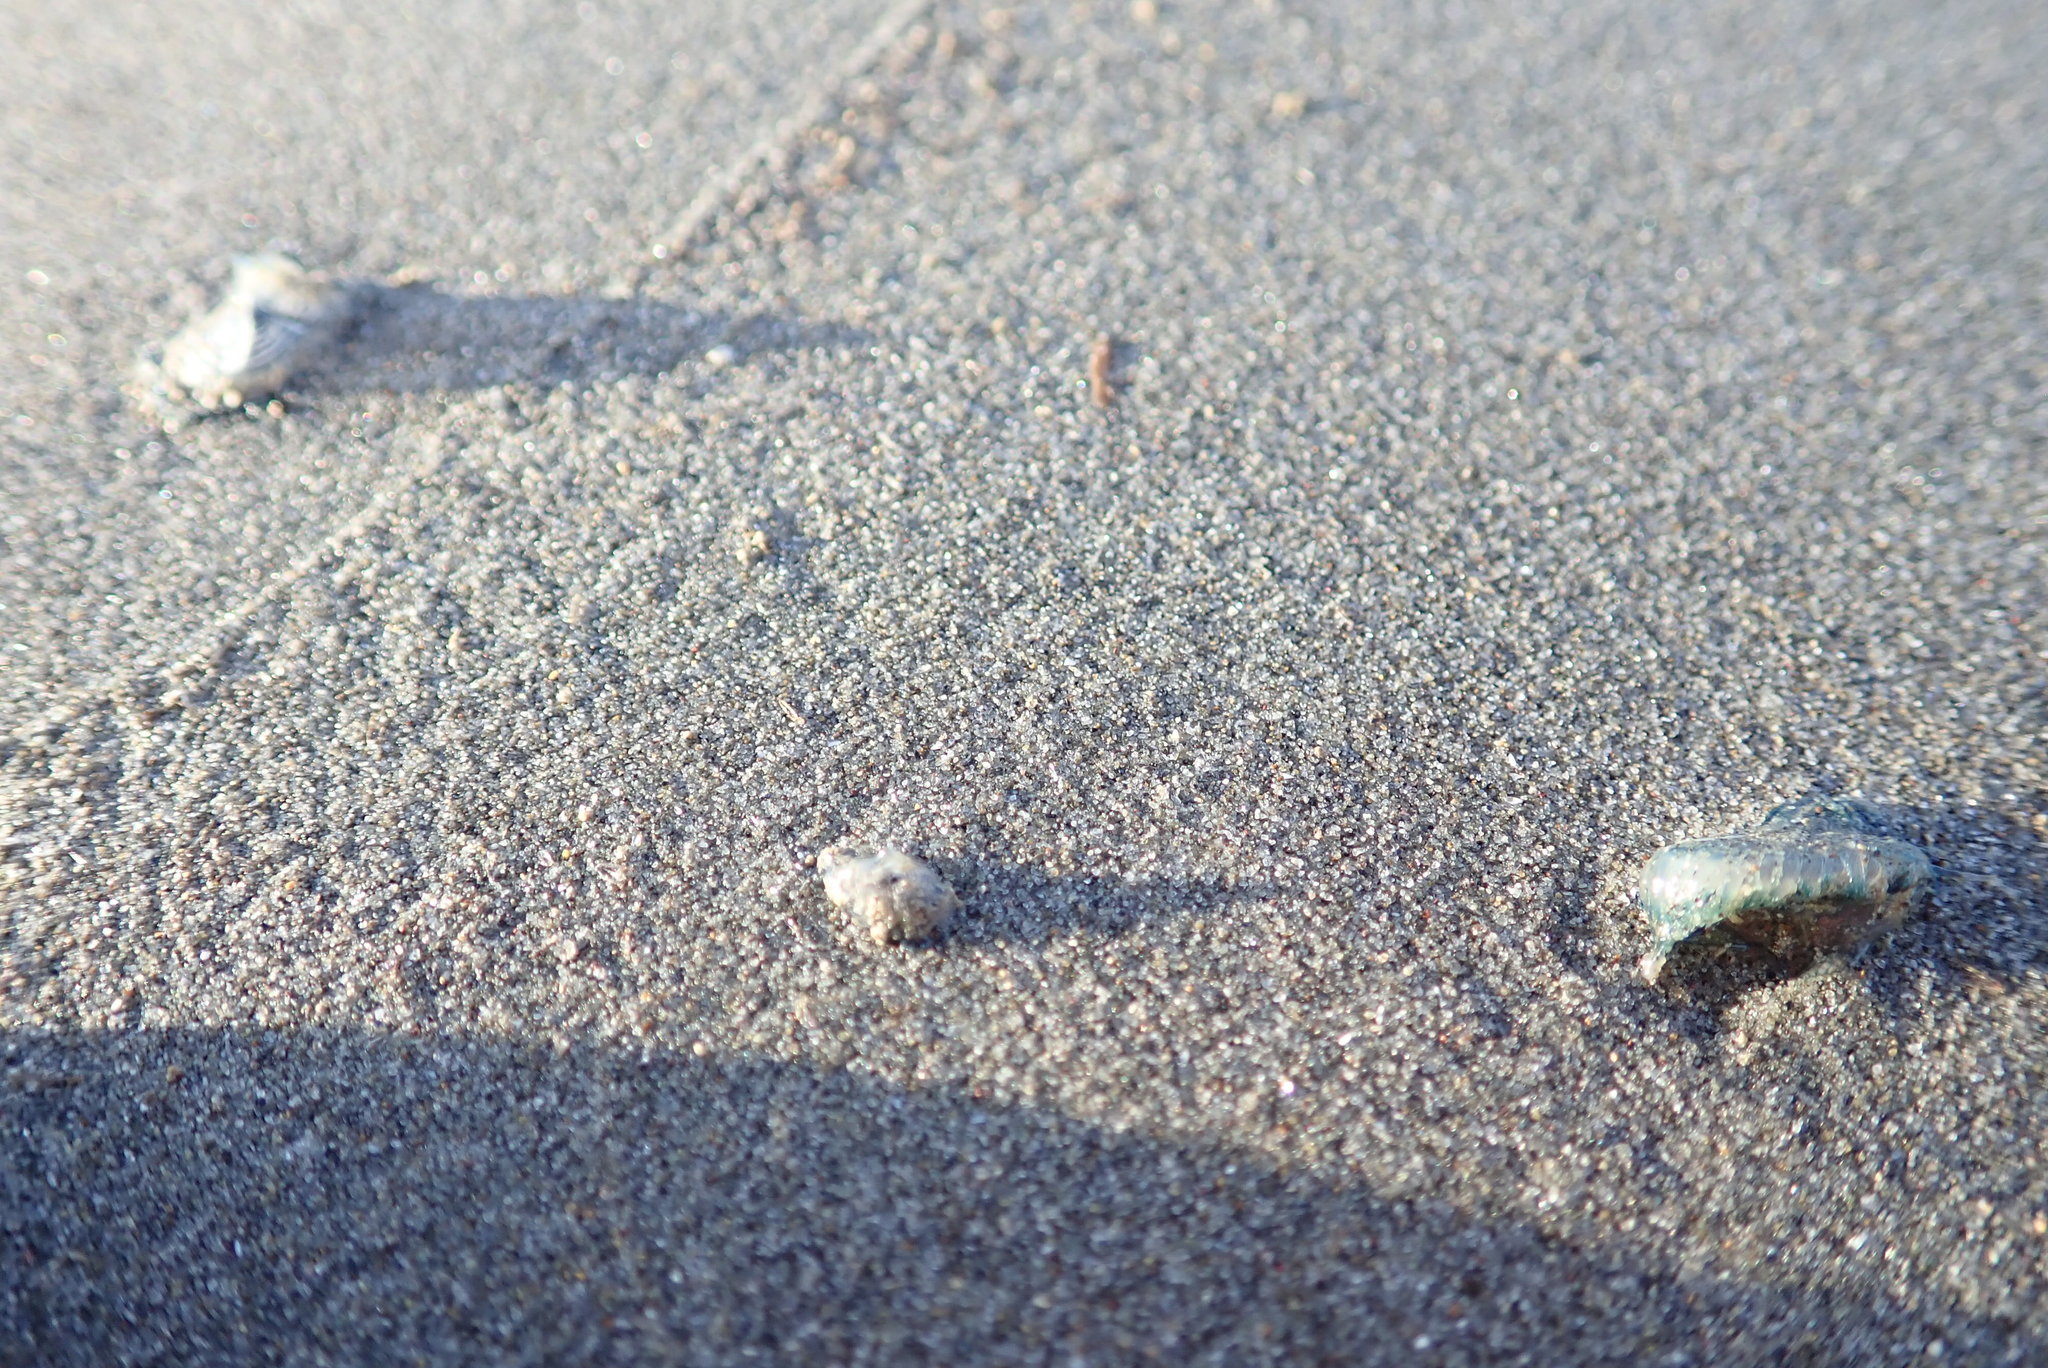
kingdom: Animalia
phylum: Cnidaria
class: Hydrozoa
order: Anthoathecata
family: Porpitidae
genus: Velella
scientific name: Velella velella
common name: By-the-wind-sailor
